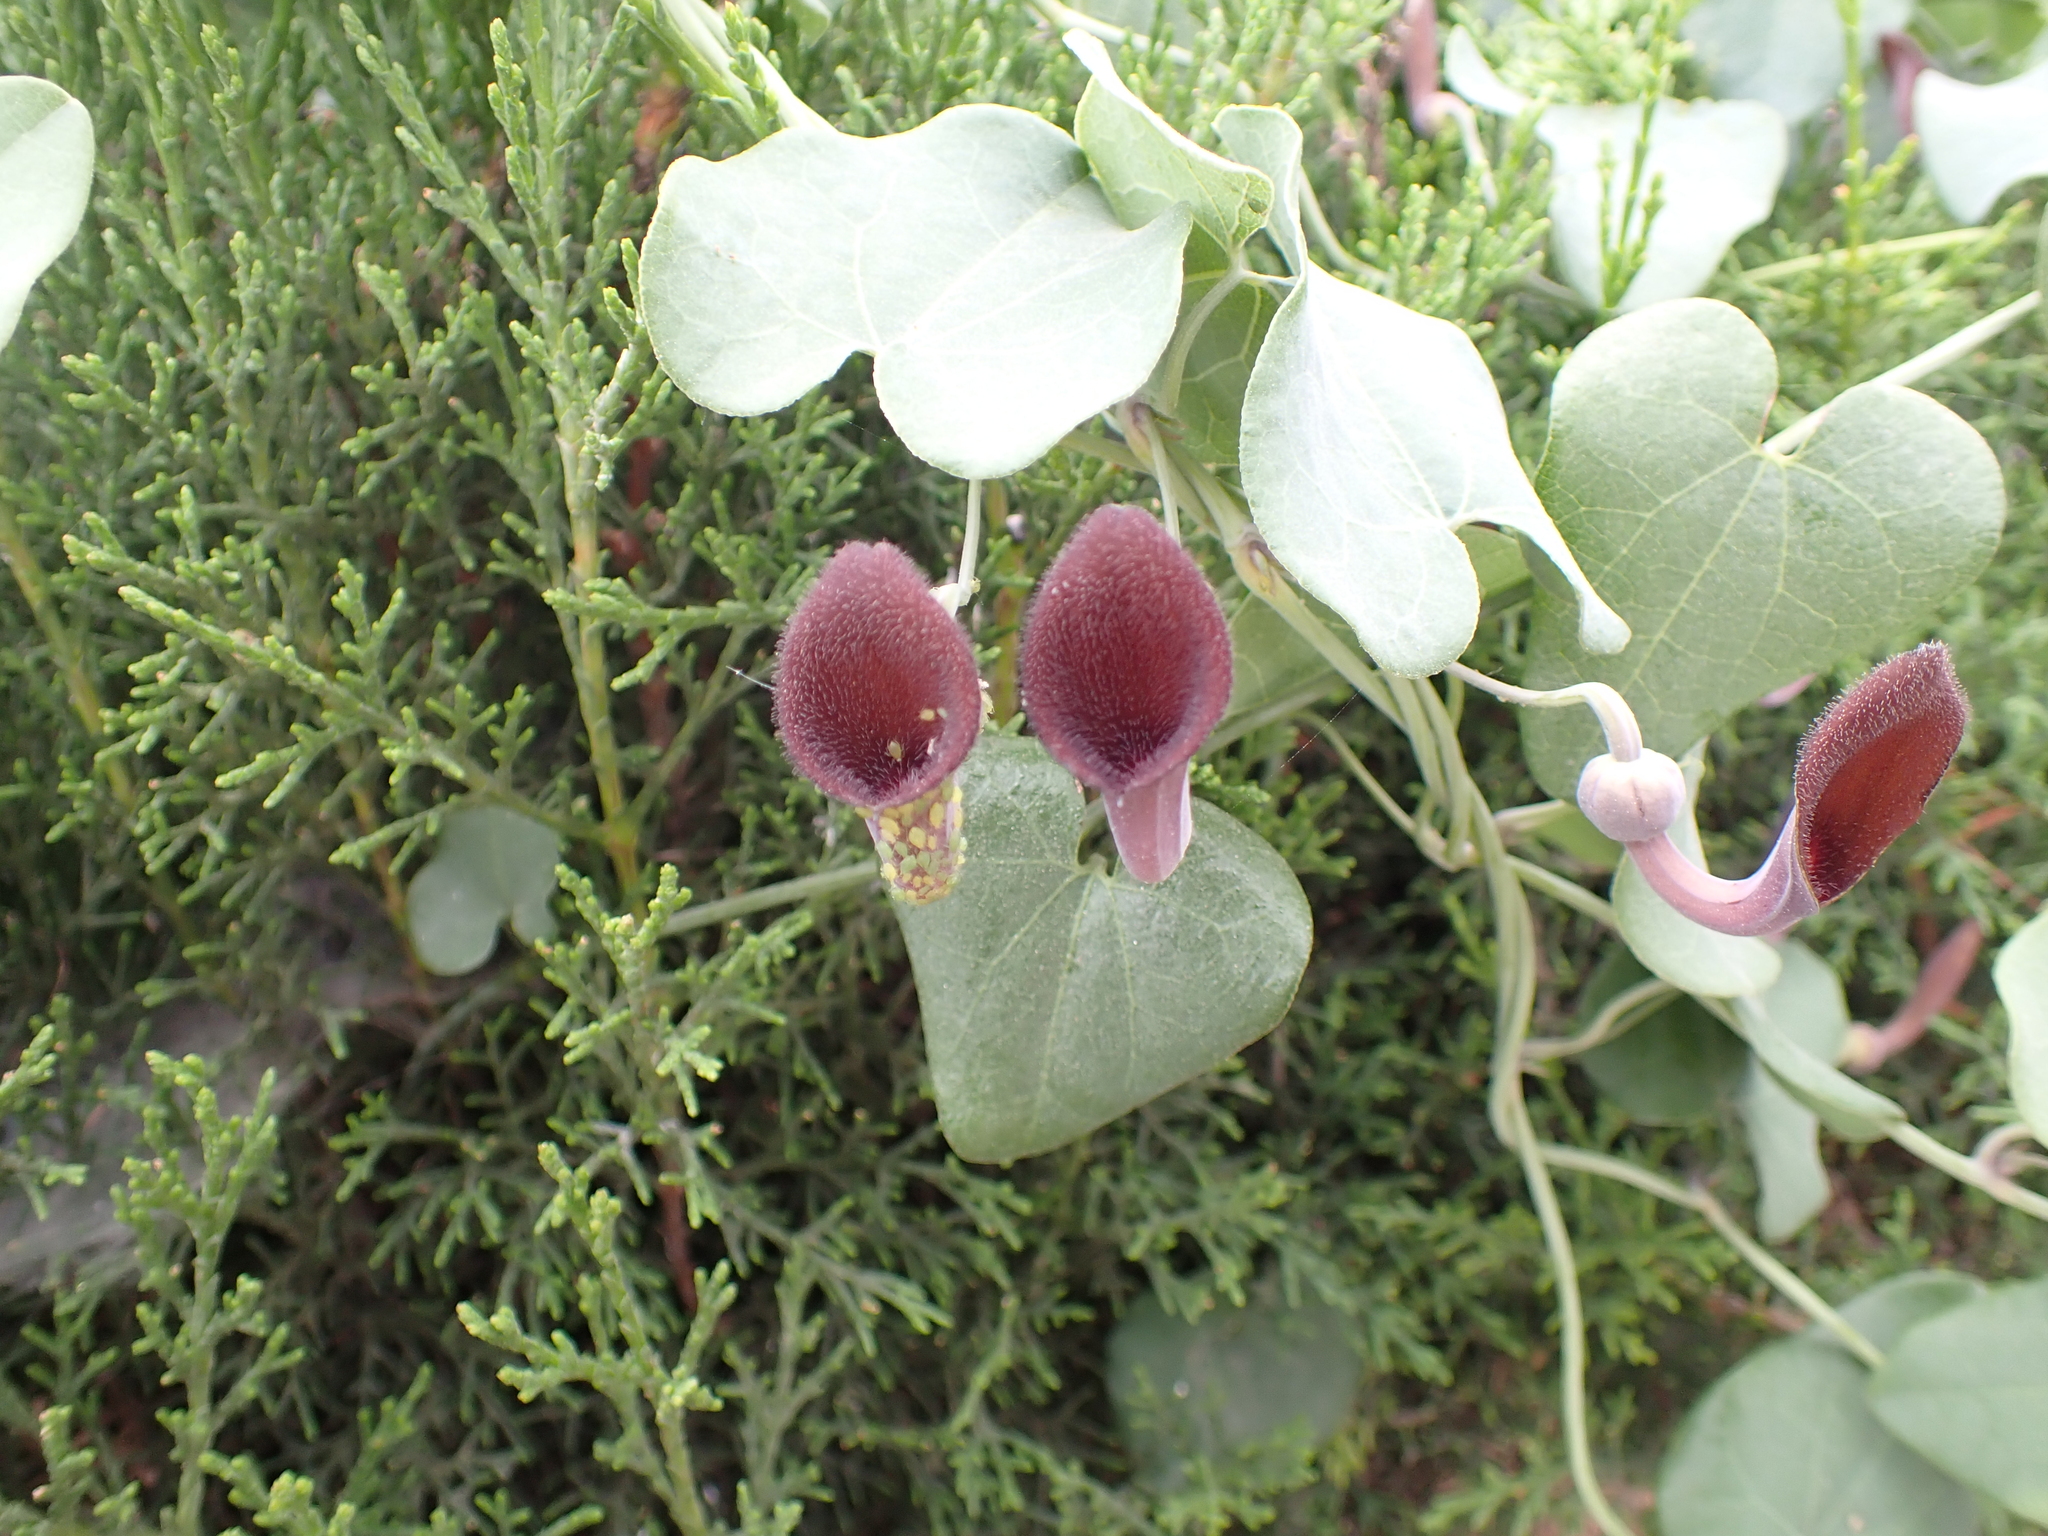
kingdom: Plantae
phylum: Tracheophyta
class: Magnoliopsida
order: Piperales
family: Aristolochiaceae
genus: Aristolochia
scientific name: Aristolochia baetica
